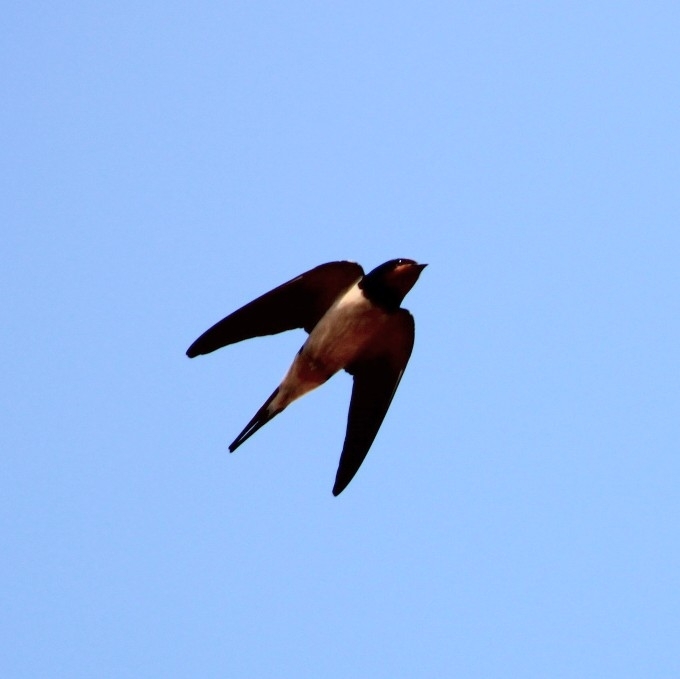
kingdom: Animalia
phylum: Chordata
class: Aves
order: Passeriformes
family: Hirundinidae
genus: Hirundo
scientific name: Hirundo rustica
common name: Barn swallow
